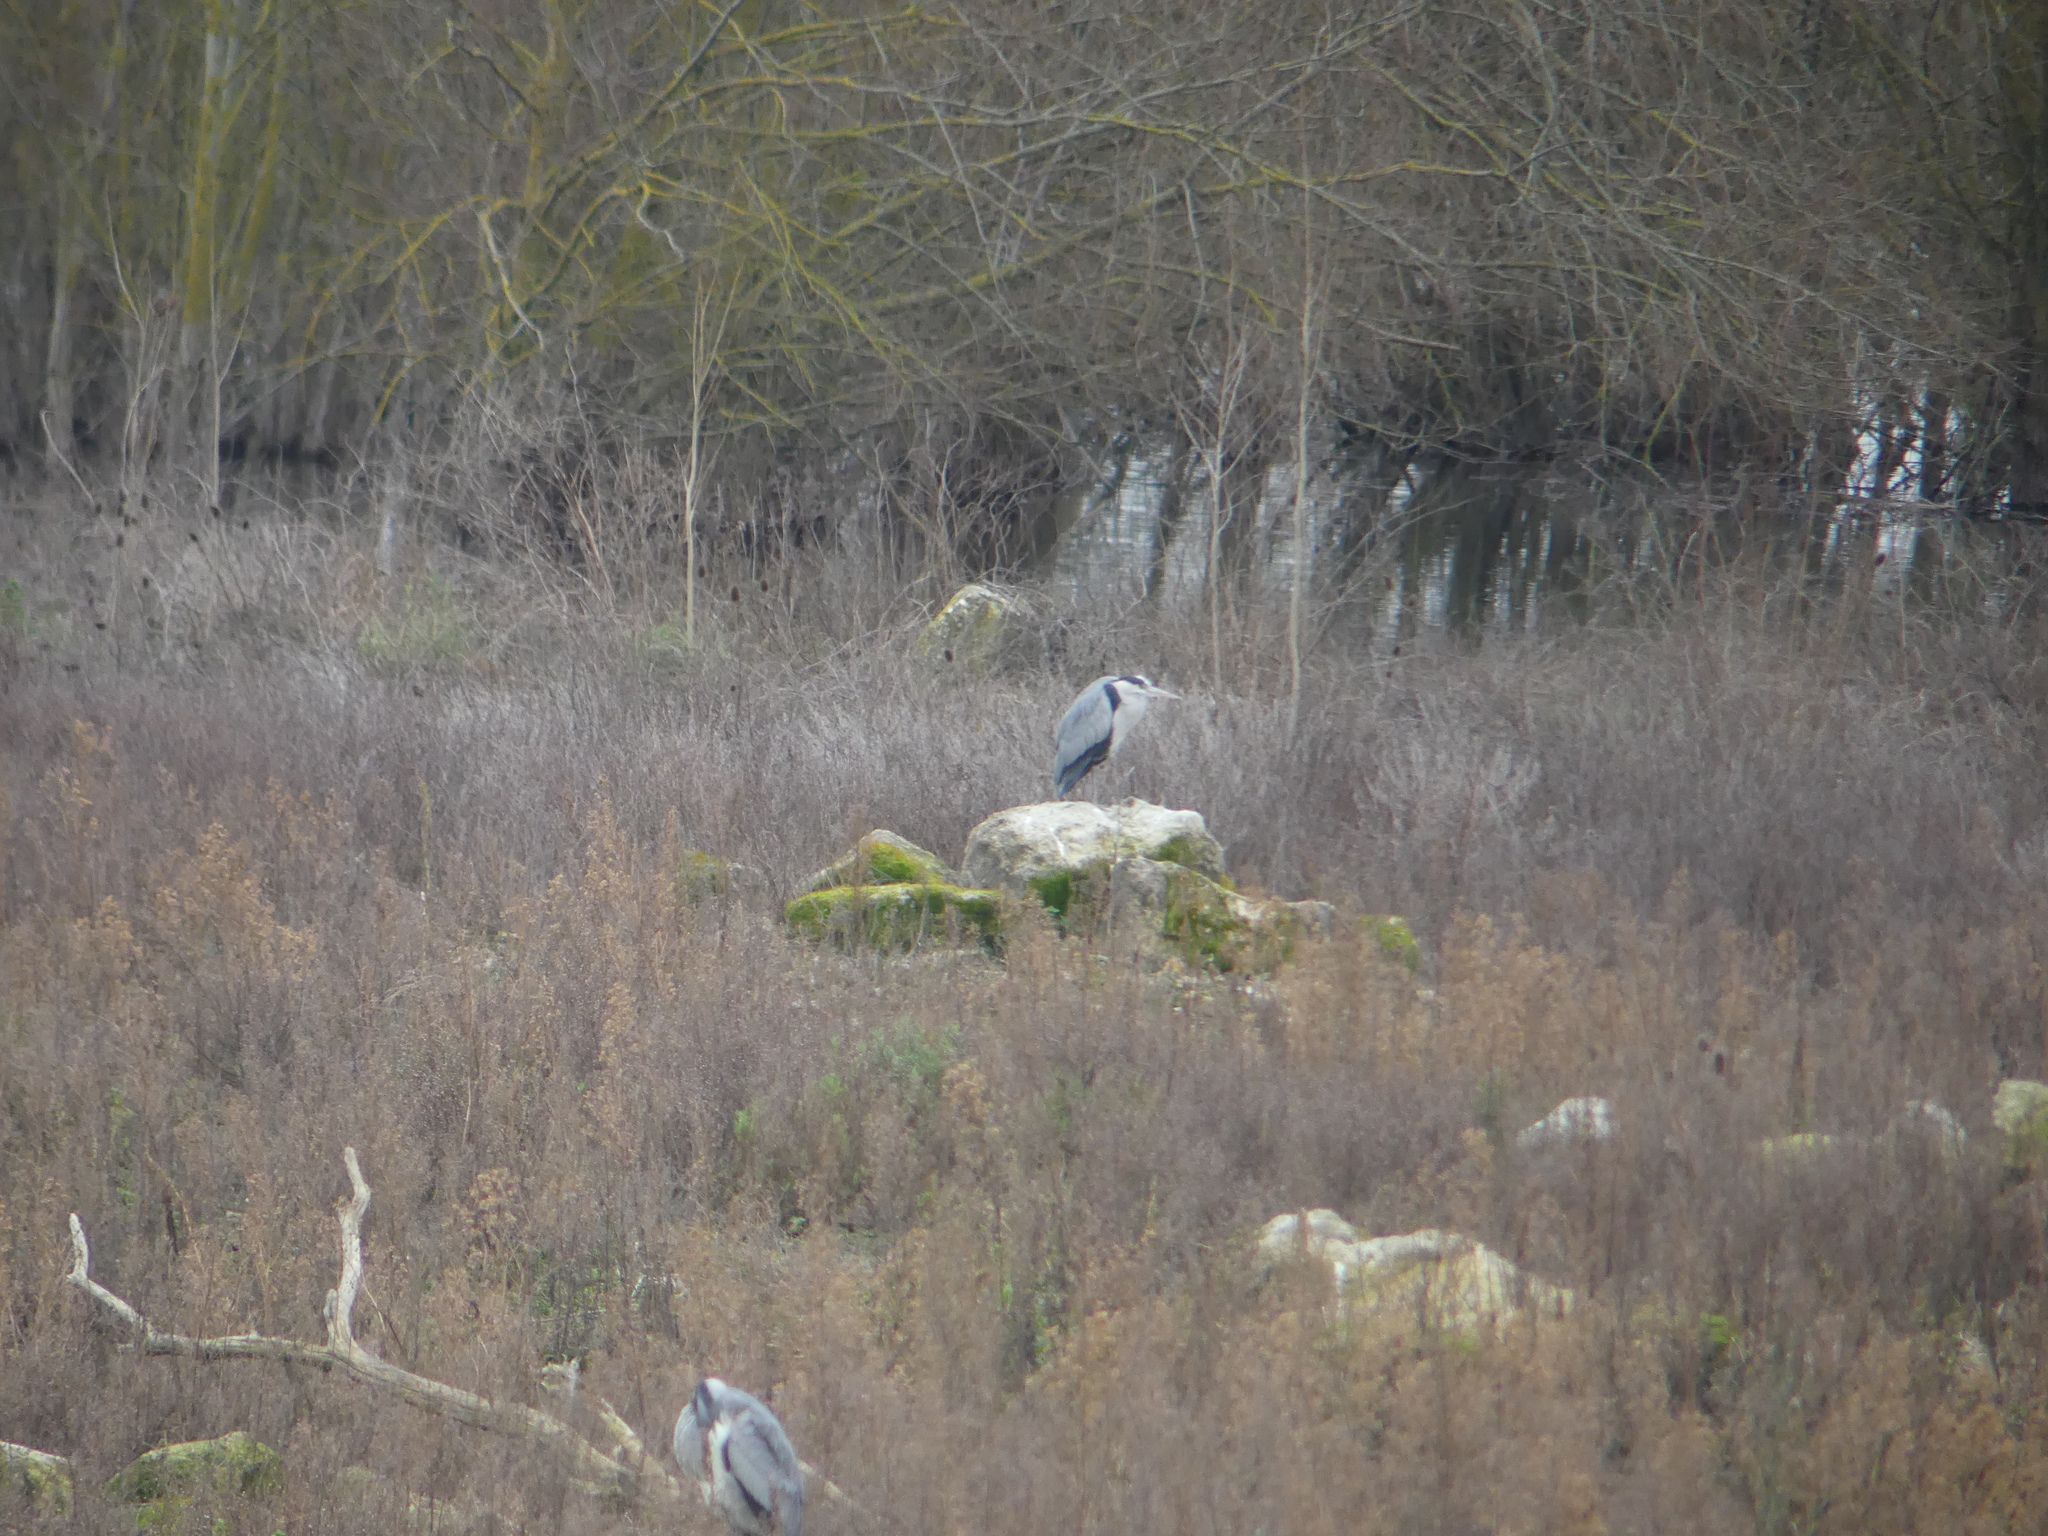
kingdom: Animalia
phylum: Chordata
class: Aves
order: Pelecaniformes
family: Ardeidae
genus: Ardea
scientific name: Ardea cinerea
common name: Grey heron
